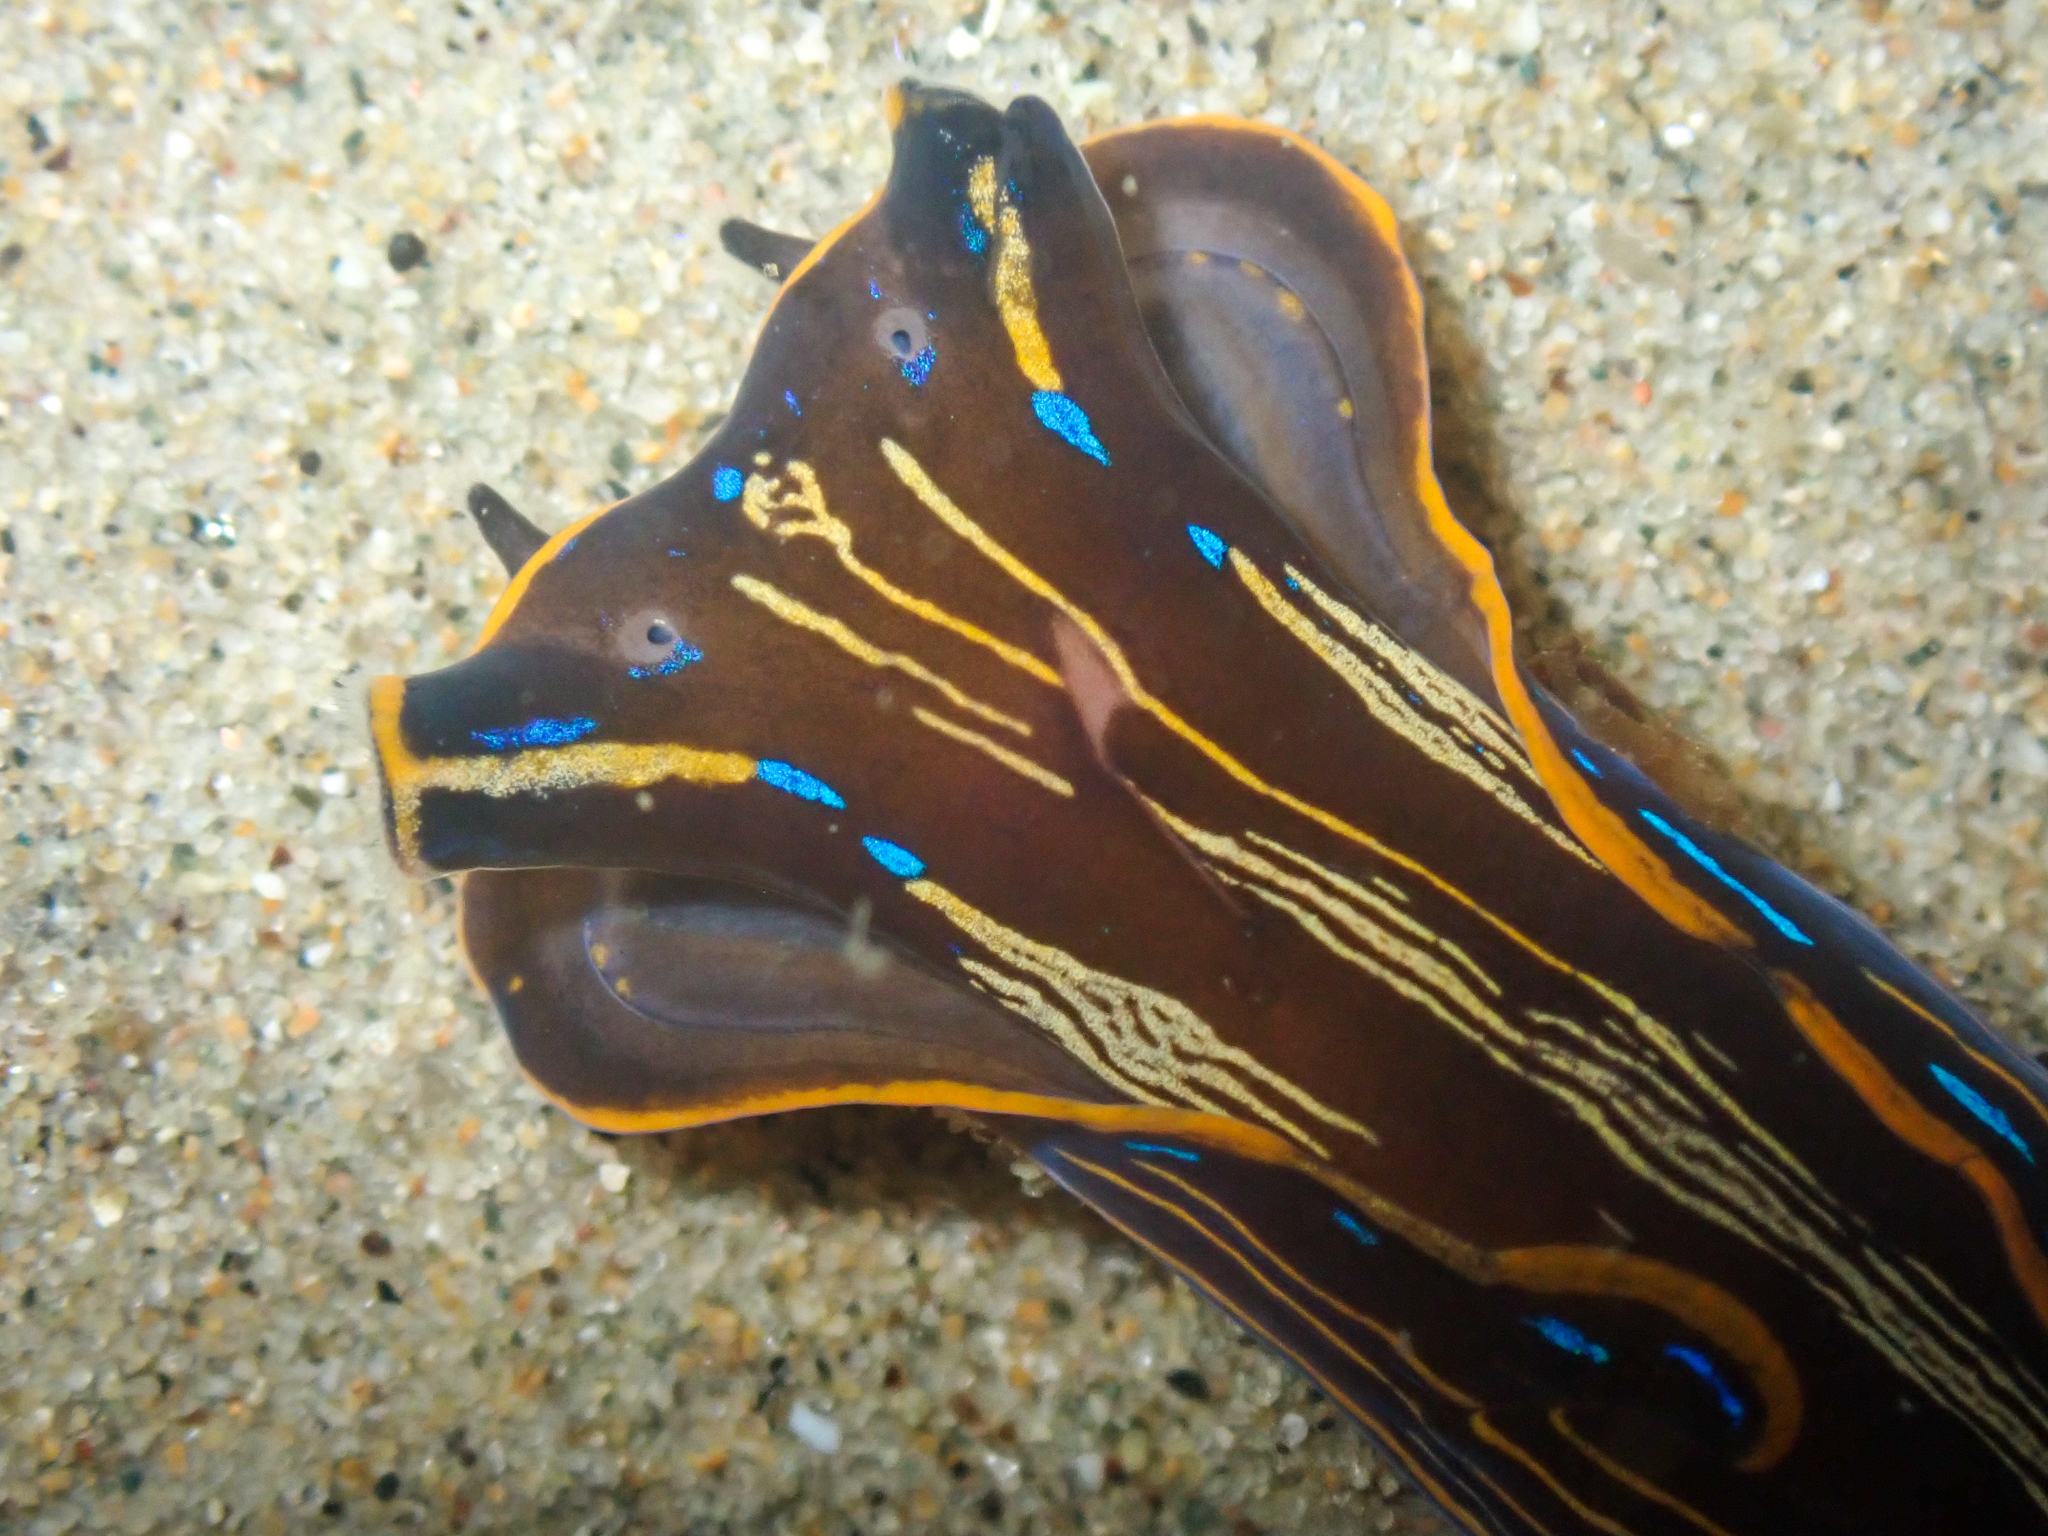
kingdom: Animalia
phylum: Mollusca
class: Gastropoda
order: Cephalaspidea
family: Aglajidae
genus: Navanax
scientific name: Navanax inermis
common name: California aglaja
